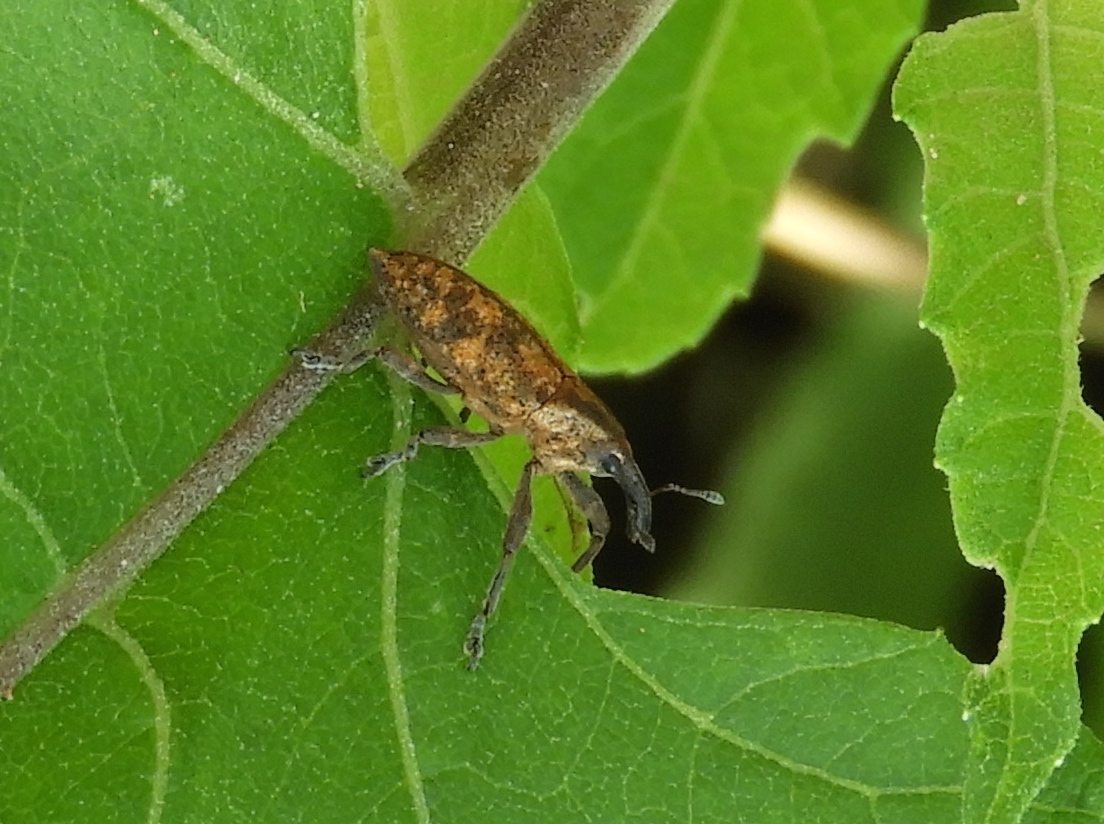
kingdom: Animalia
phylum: Arthropoda
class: Insecta
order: Coleoptera
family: Curculionidae
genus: Lixus
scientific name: Lixus
